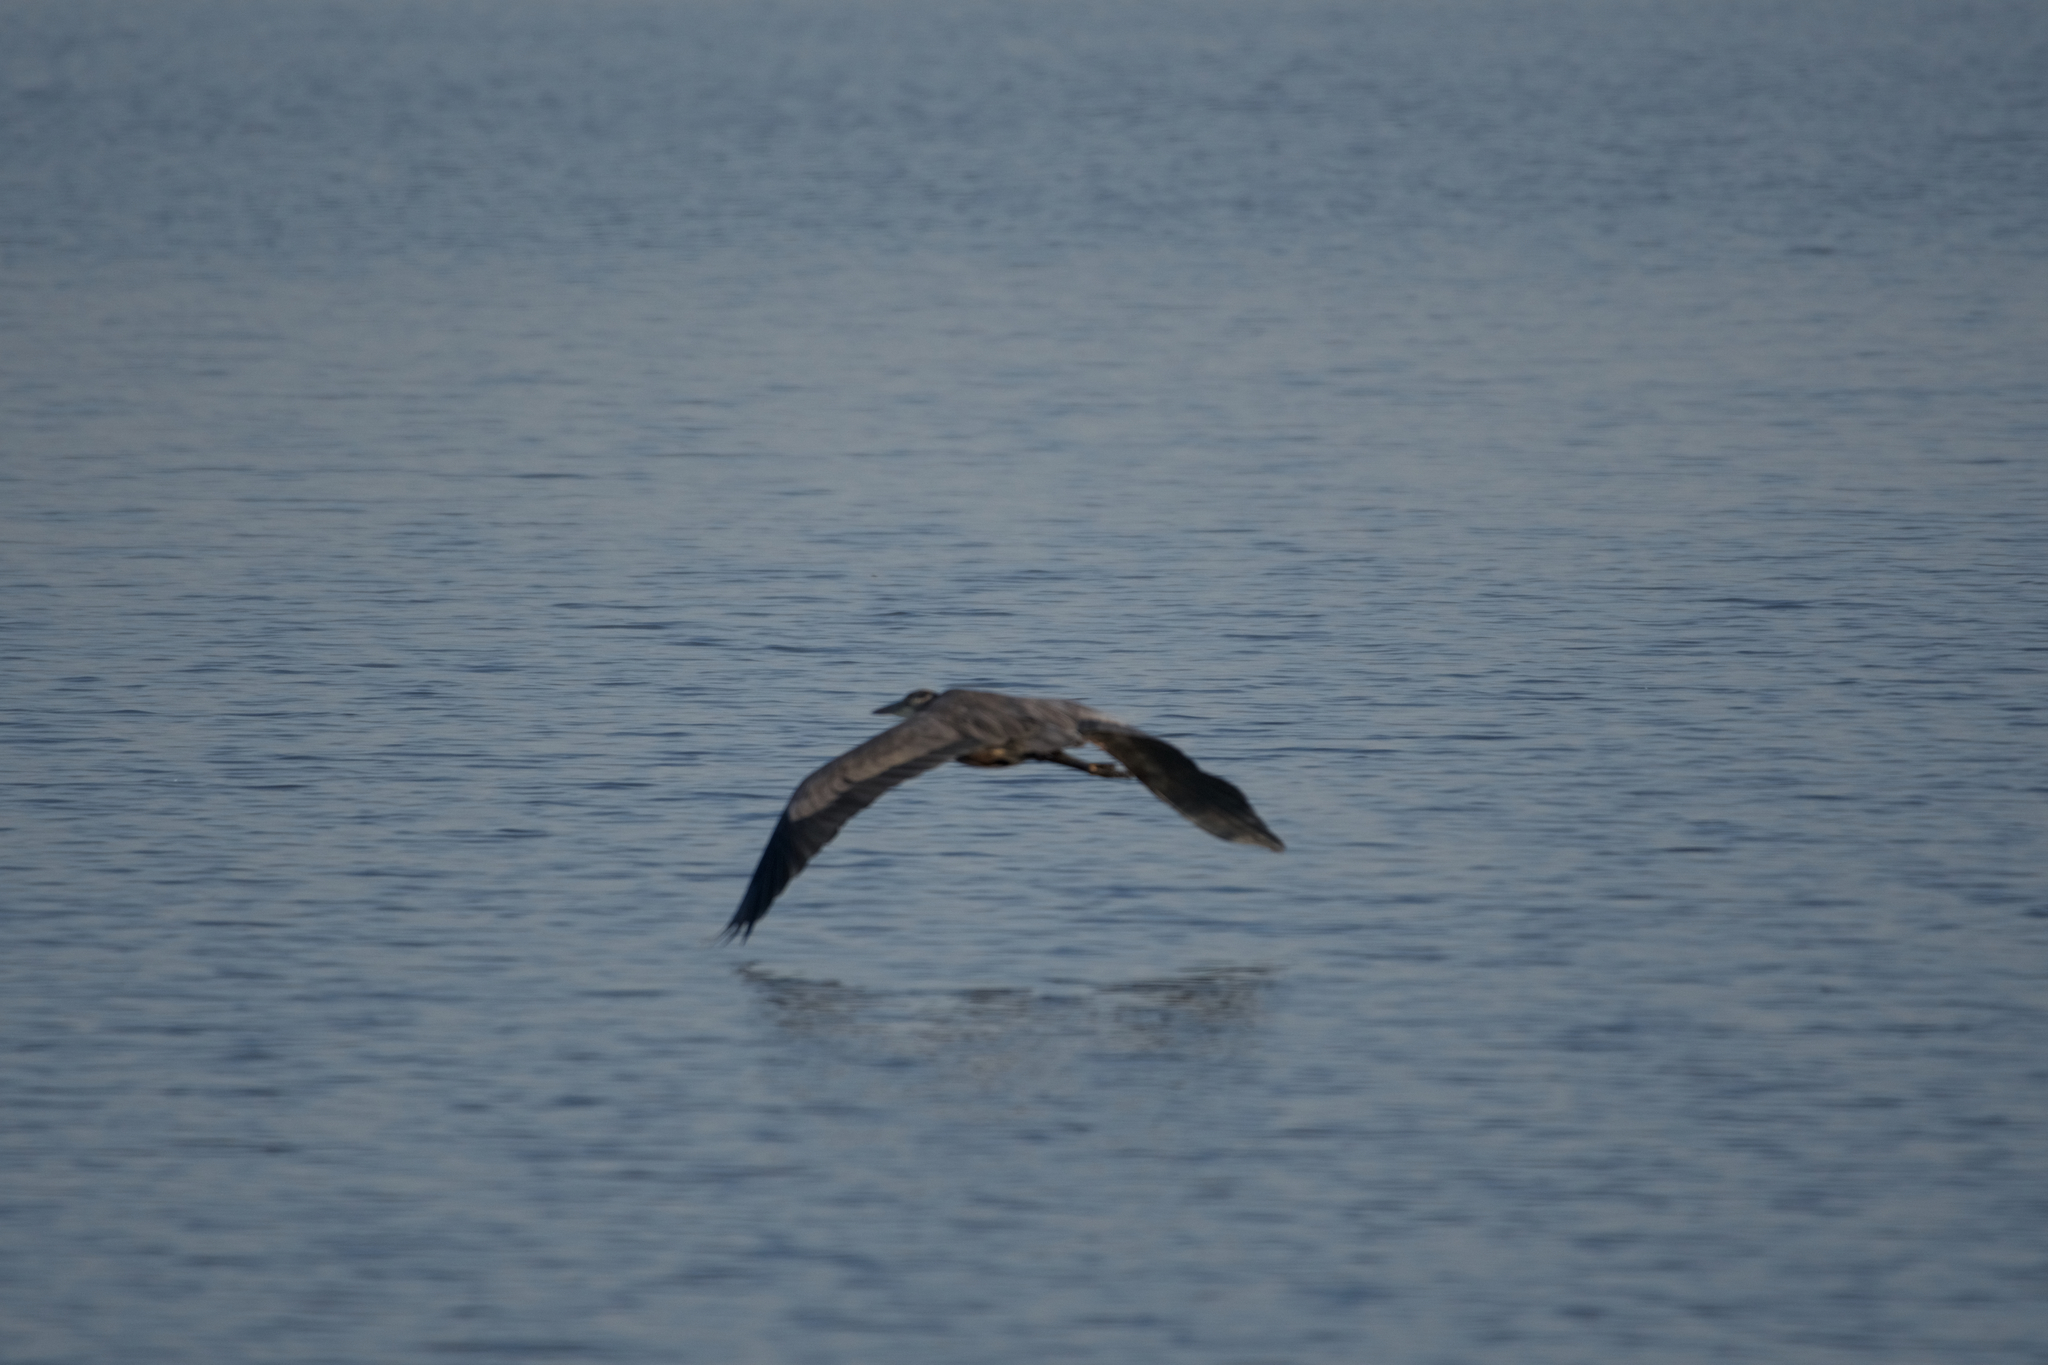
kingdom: Animalia
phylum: Chordata
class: Aves
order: Pelecaniformes
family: Ardeidae
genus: Ardea
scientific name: Ardea herodias
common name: Great blue heron
